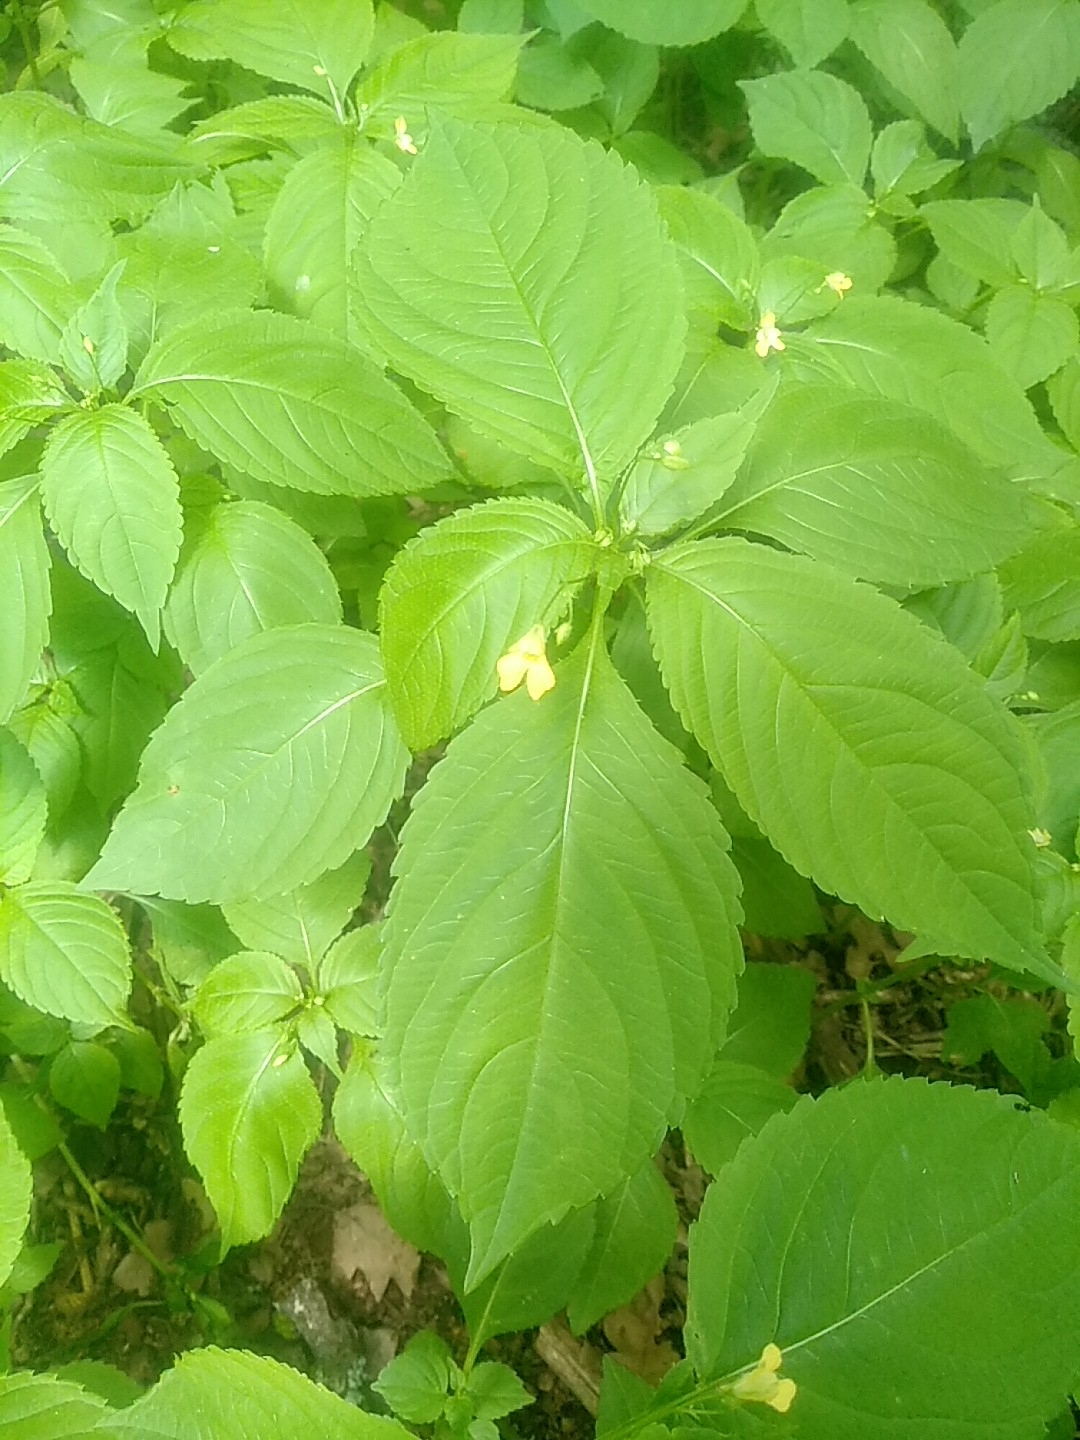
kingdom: Plantae
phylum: Tracheophyta
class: Magnoliopsida
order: Ericales
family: Balsaminaceae
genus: Impatiens
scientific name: Impatiens parviflora
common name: Small balsam
